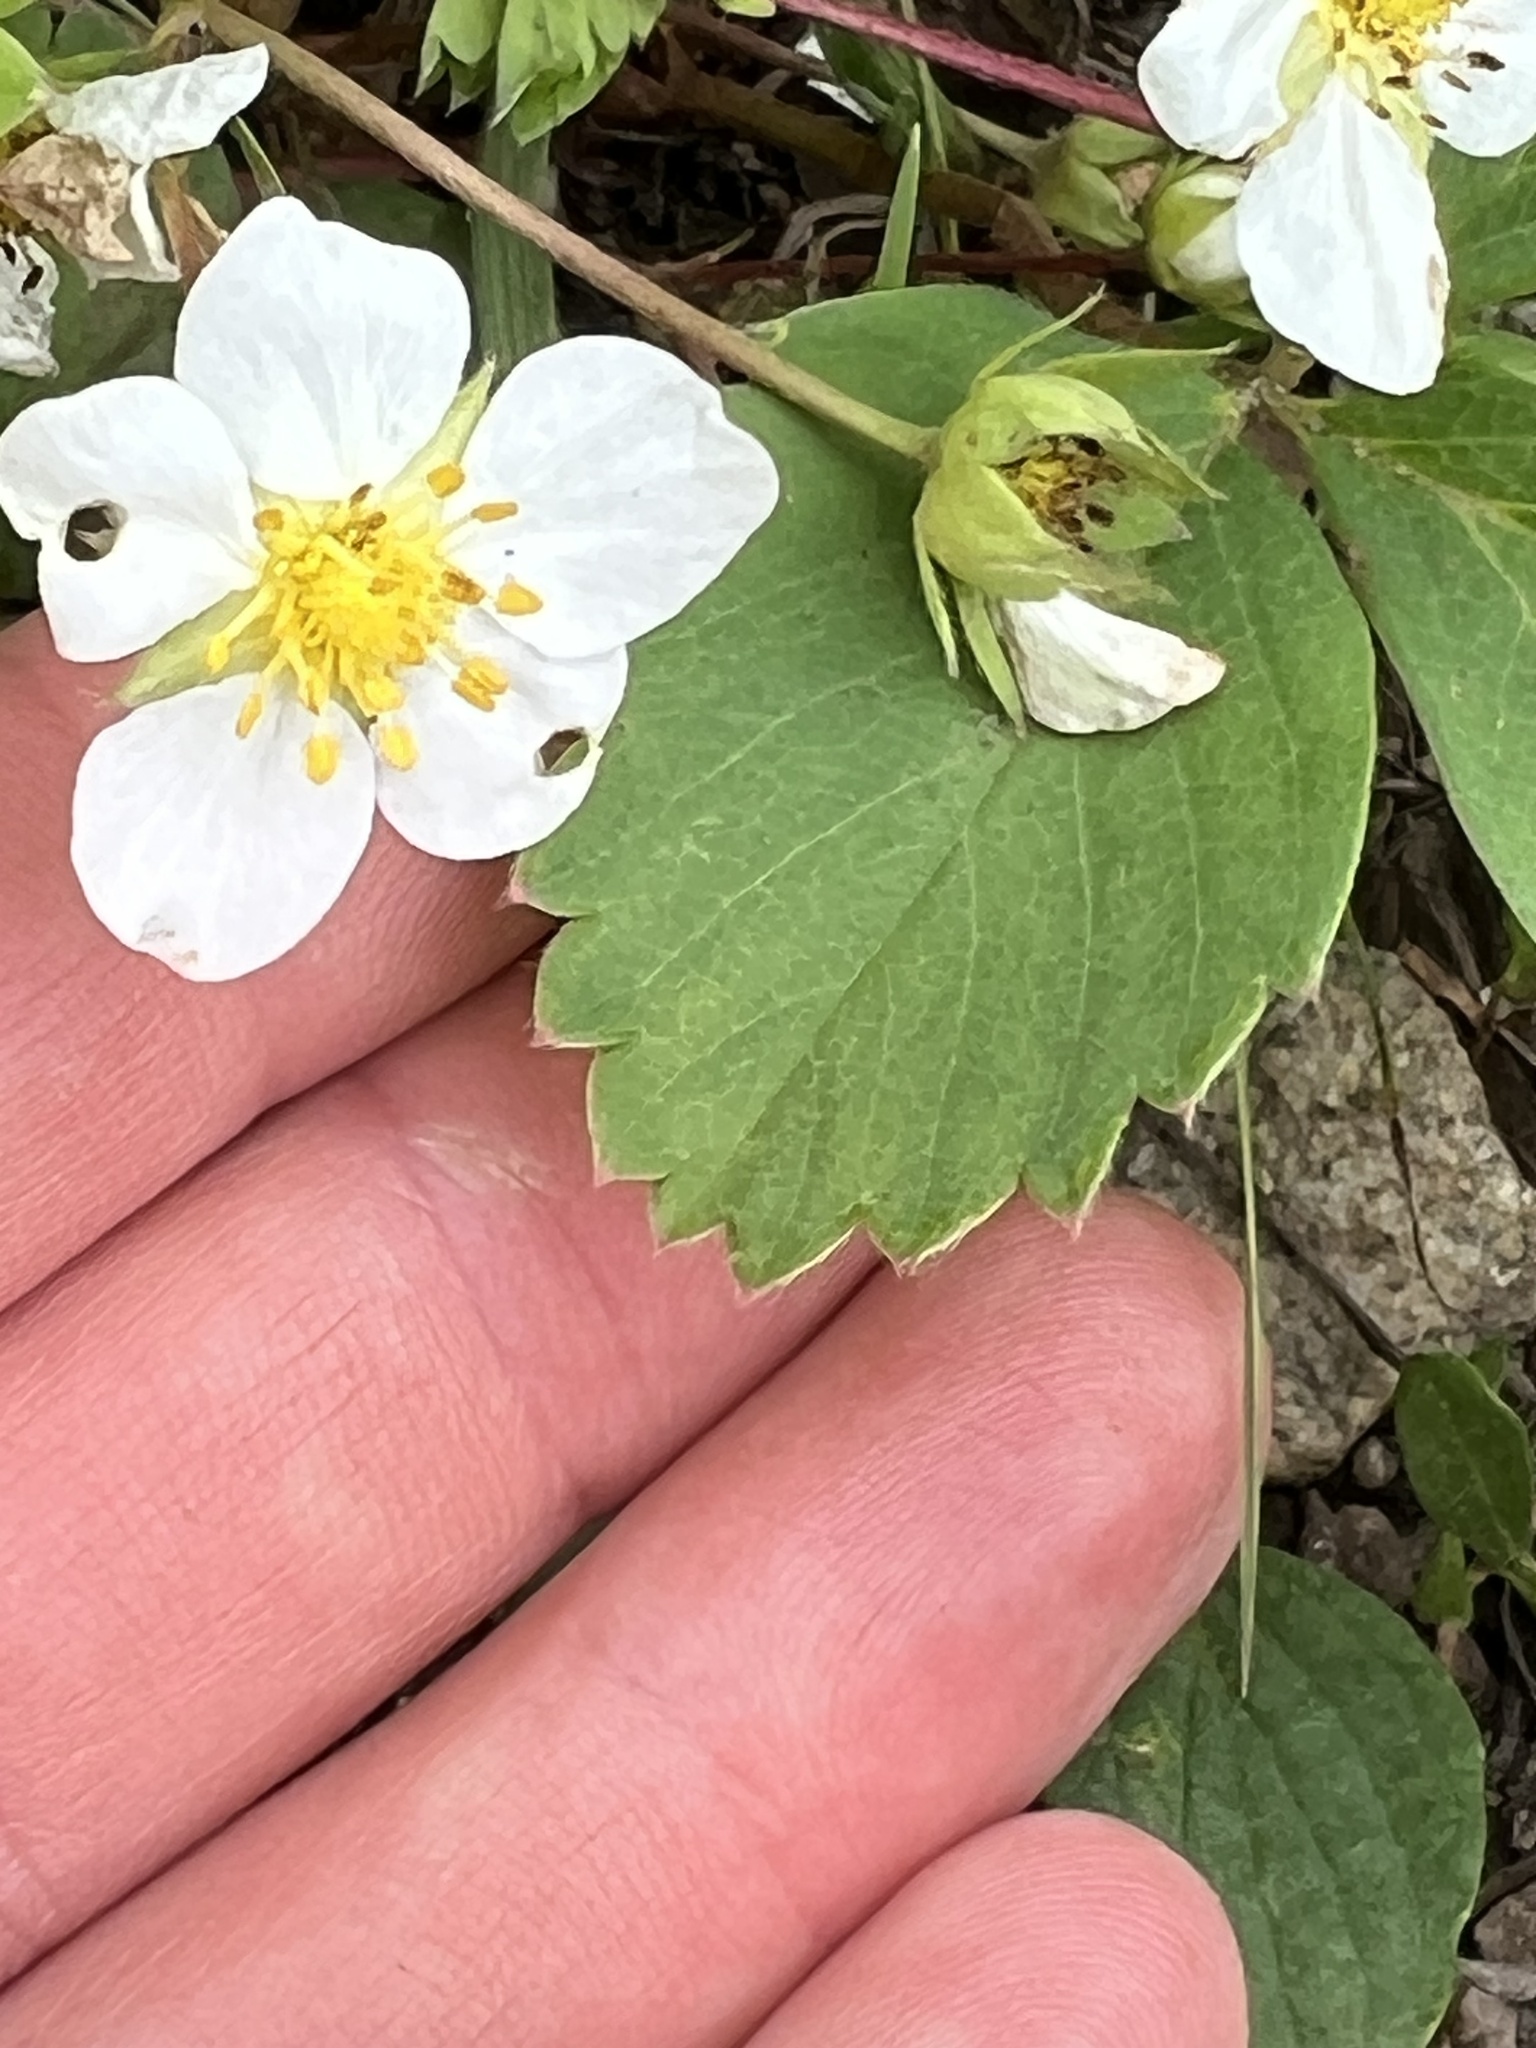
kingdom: Plantae
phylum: Tracheophyta
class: Magnoliopsida
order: Rosales
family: Rosaceae
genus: Fragaria
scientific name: Fragaria virginiana
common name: Thickleaved wild strawberry
